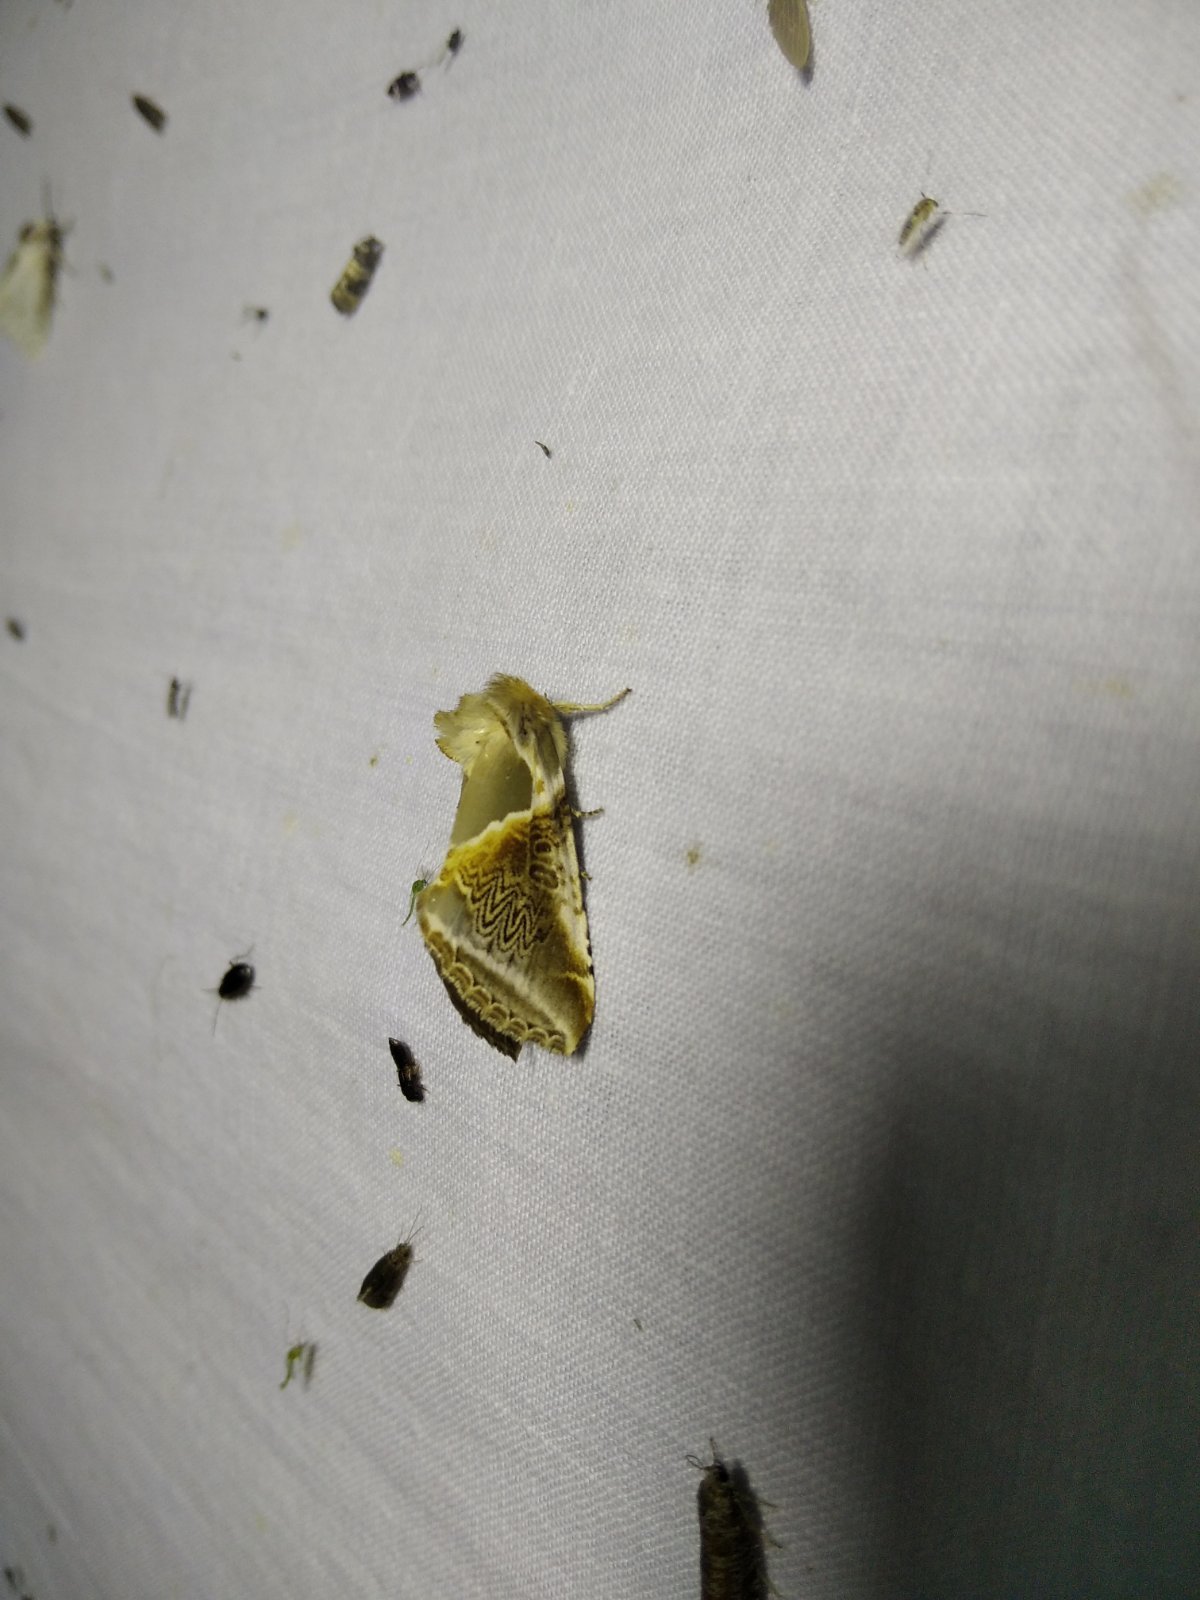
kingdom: Animalia
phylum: Arthropoda
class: Insecta
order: Lepidoptera
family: Drepanidae
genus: Habrosyne
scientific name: Habrosyne pyritoides
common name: Buff arches
